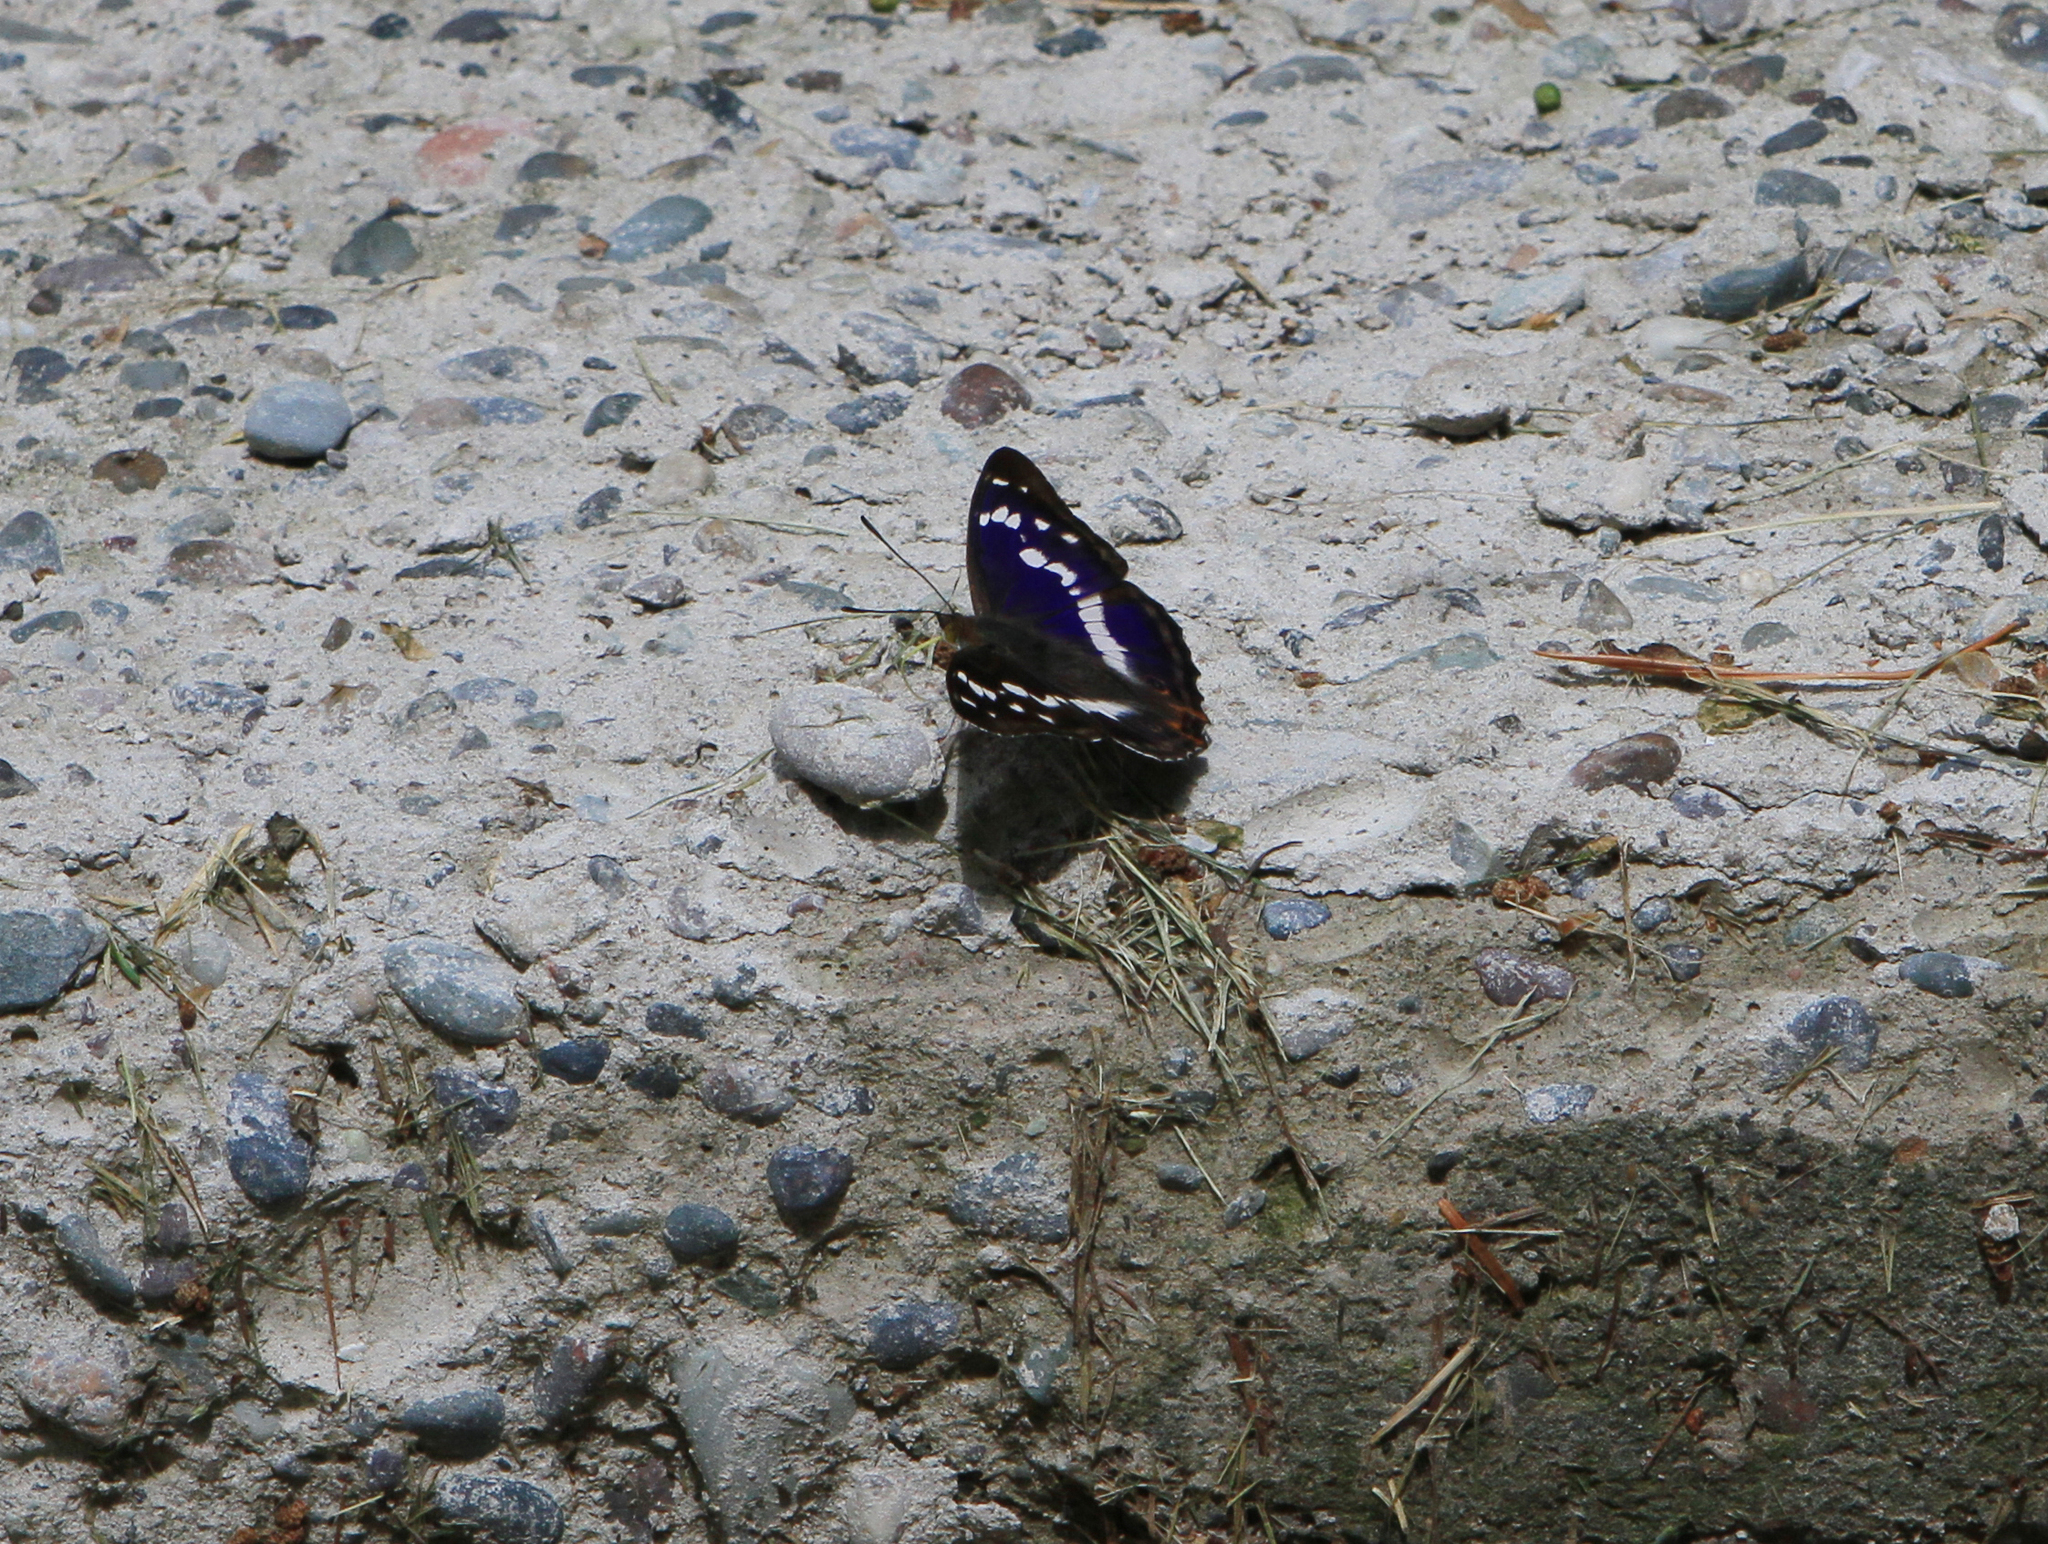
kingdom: Animalia
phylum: Arthropoda
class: Insecta
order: Lepidoptera
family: Nymphalidae
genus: Apatura
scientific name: Apatura iris
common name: Purple emperor
